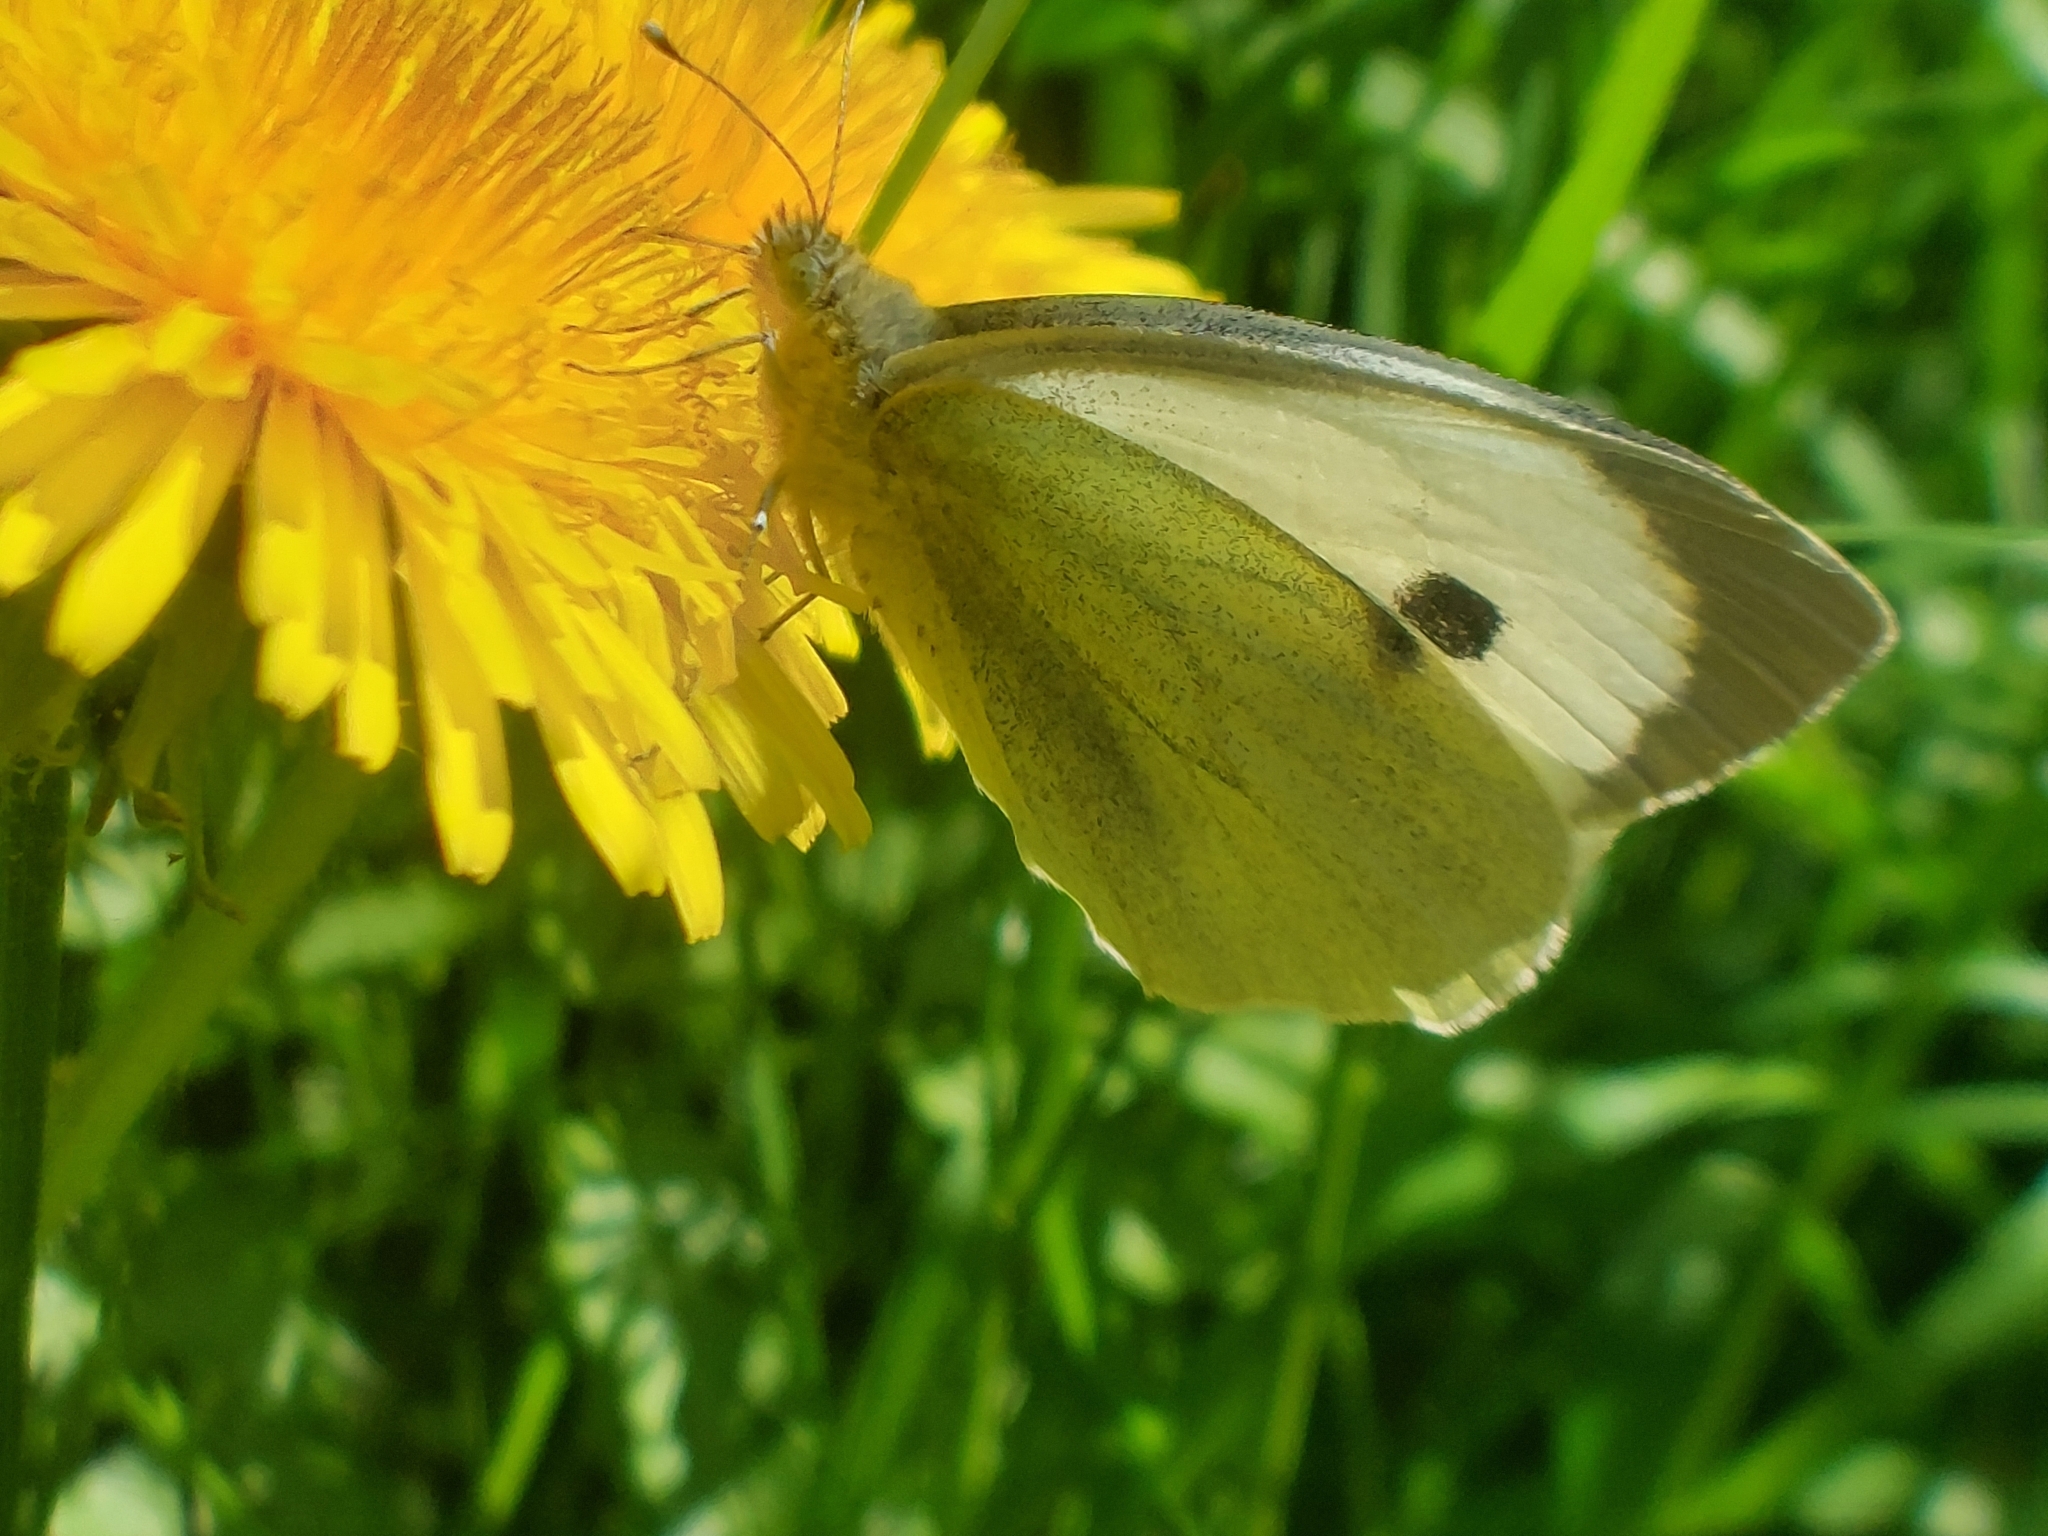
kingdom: Animalia
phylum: Arthropoda
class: Insecta
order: Lepidoptera
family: Pieridae
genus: Pieris
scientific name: Pieris brassicae
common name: Large white
